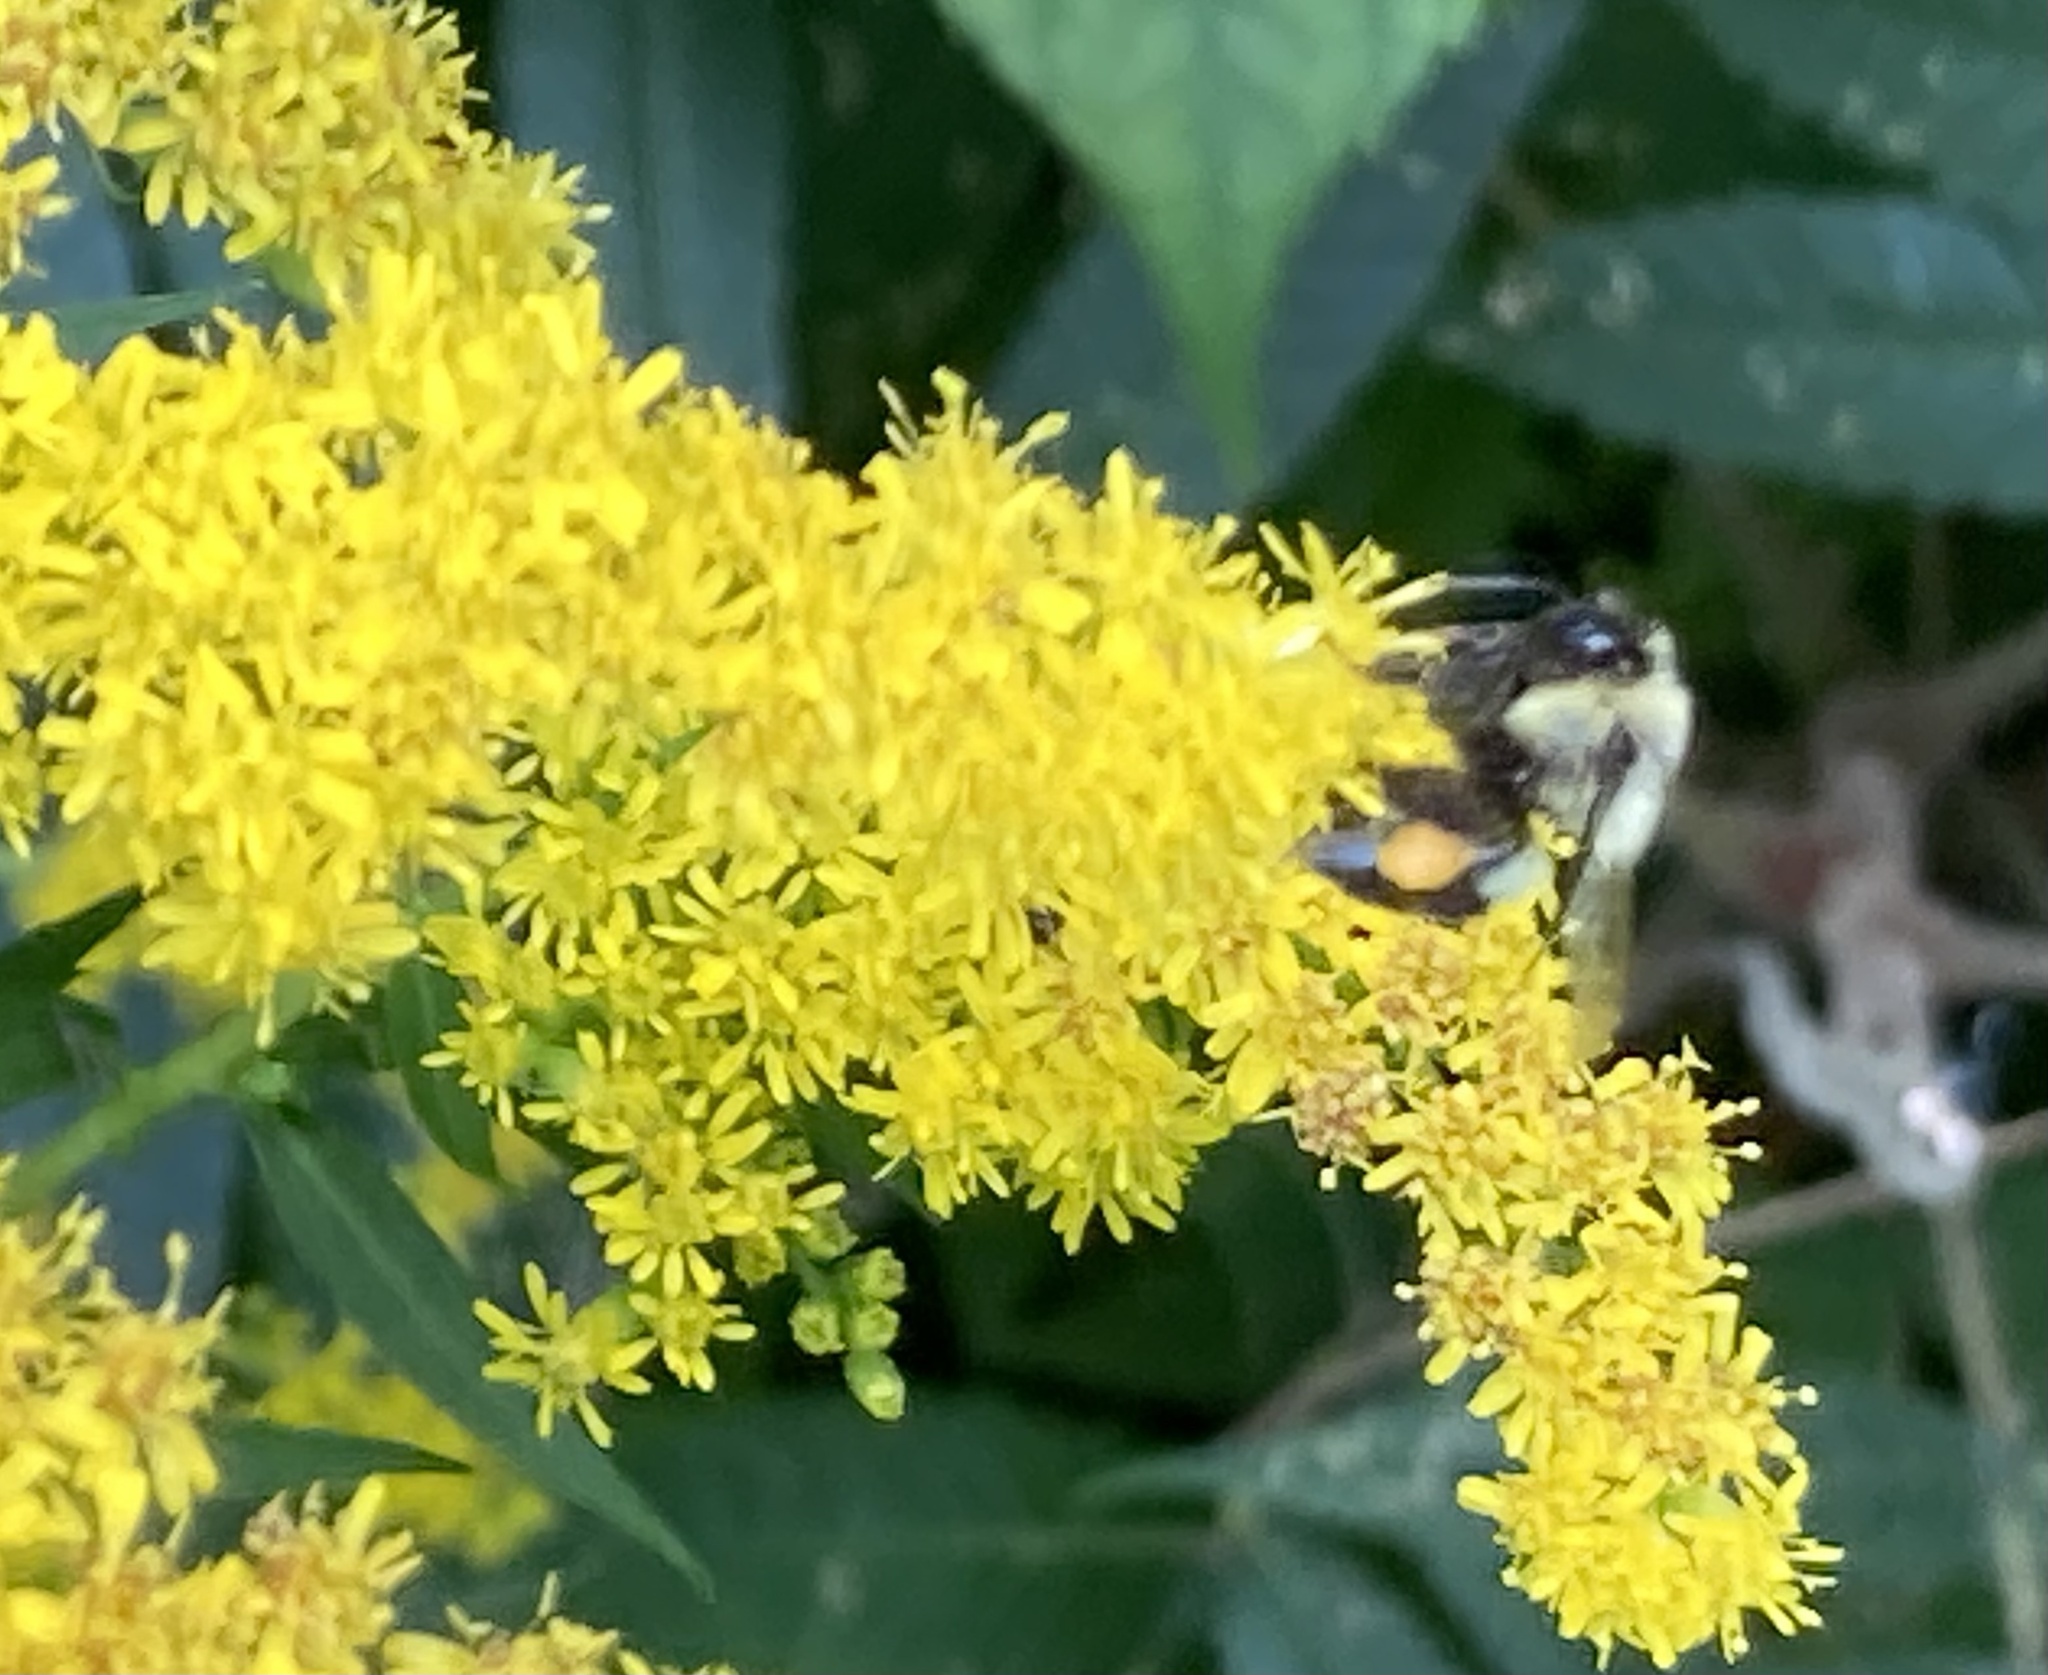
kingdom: Animalia
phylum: Arthropoda
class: Insecta
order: Hymenoptera
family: Apidae
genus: Bombus
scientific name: Bombus impatiens
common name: Common eastern bumble bee
